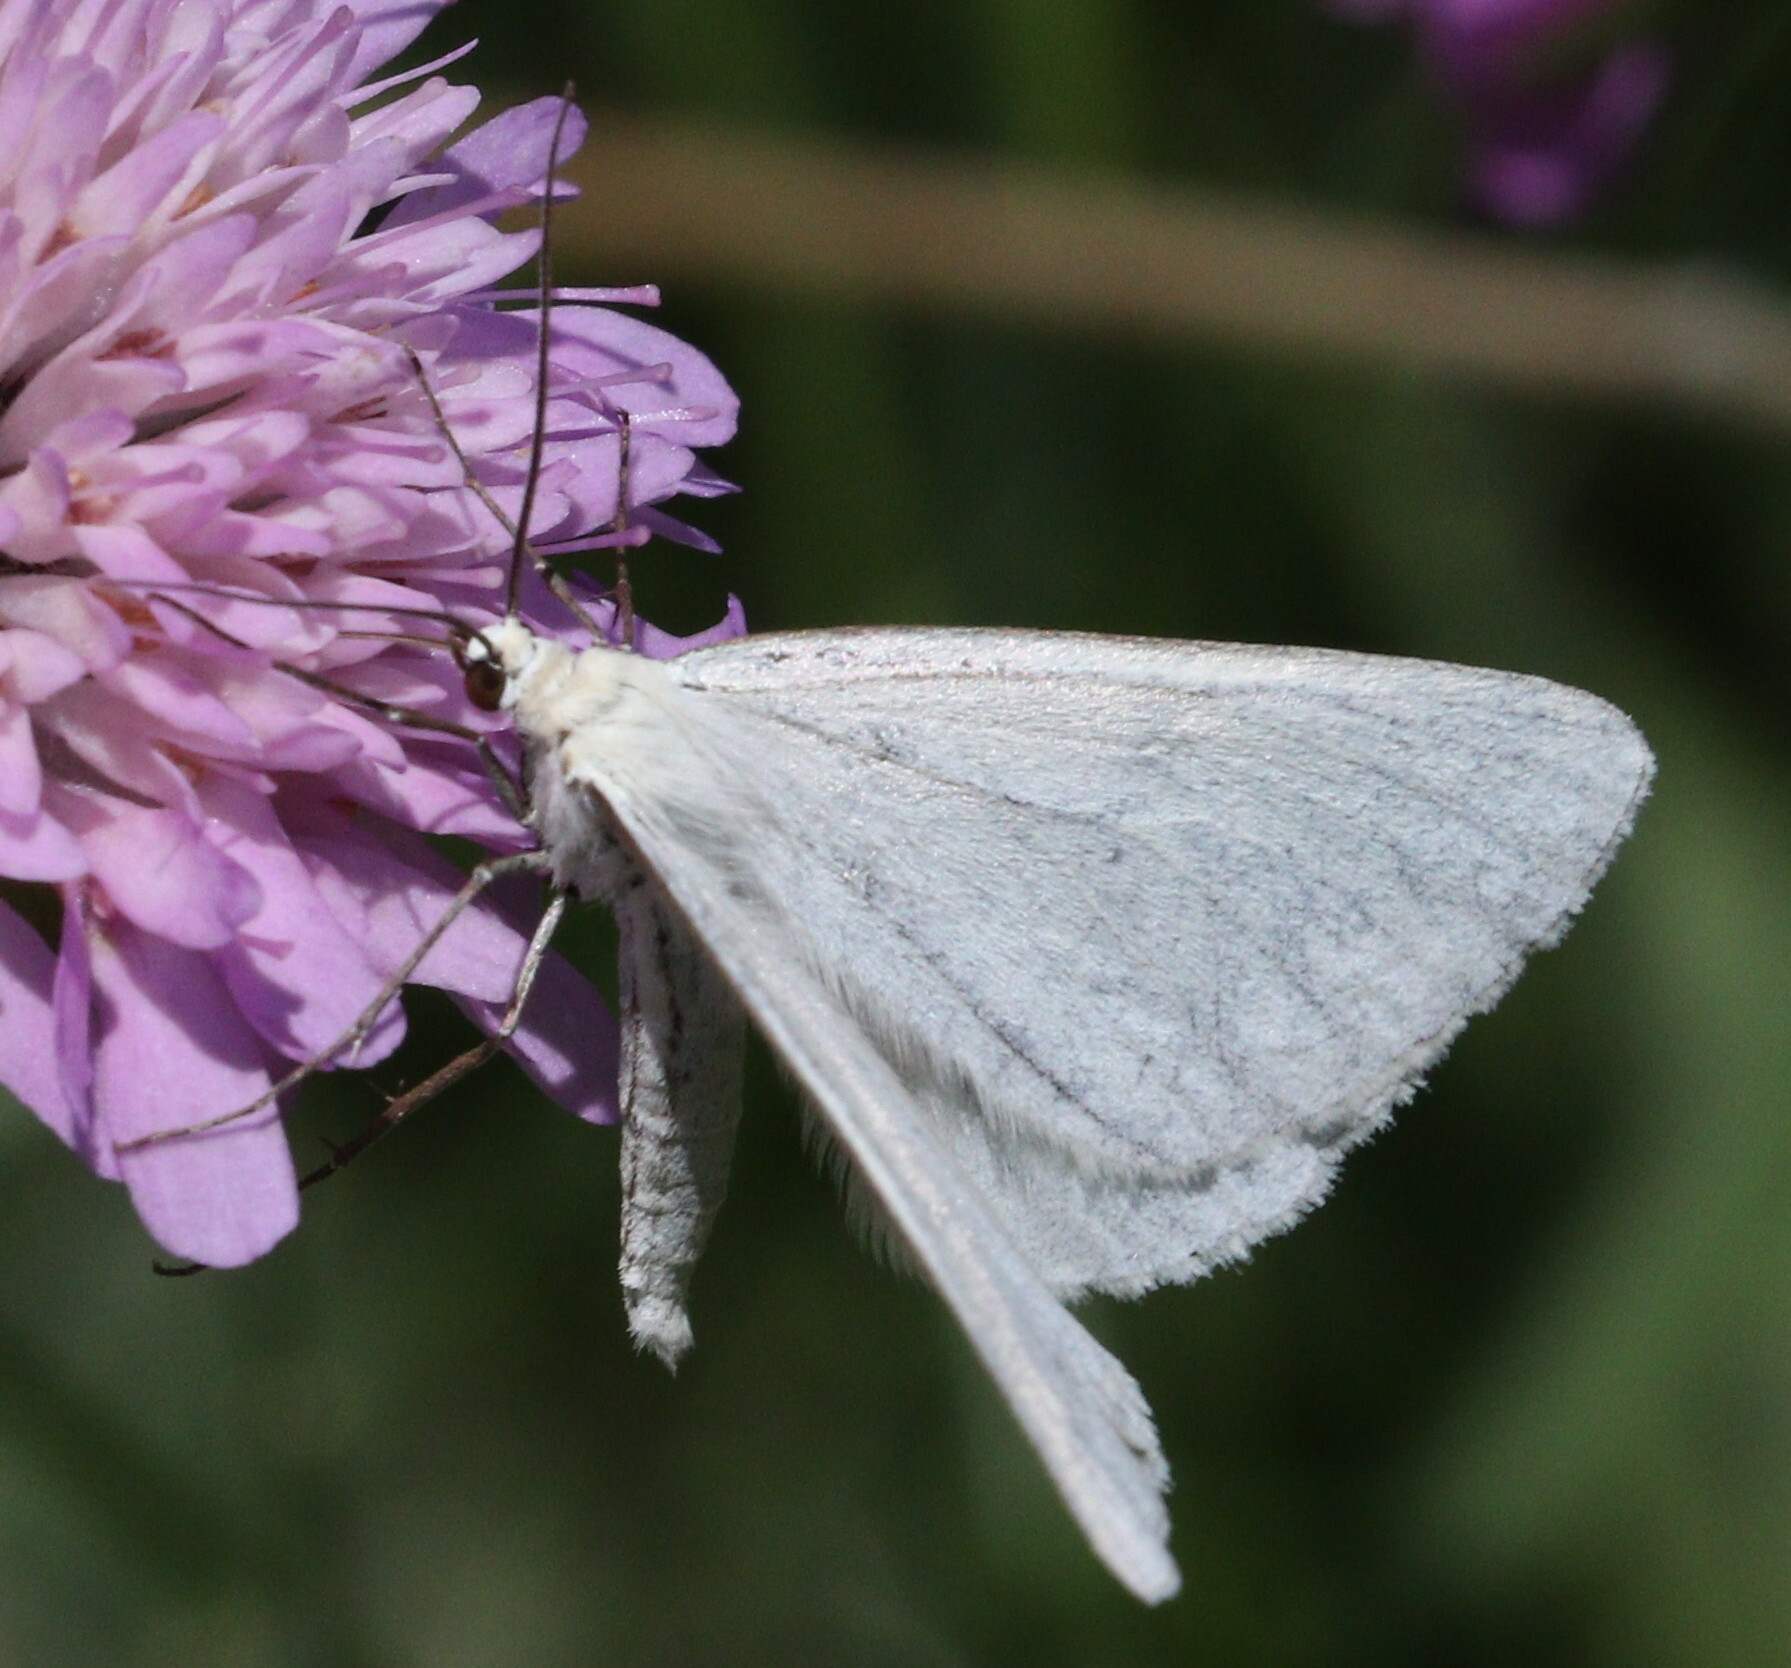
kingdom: Animalia
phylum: Arthropoda
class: Insecta
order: Lepidoptera
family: Geometridae
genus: Siona
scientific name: Siona lineata
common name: Black-veined moth
